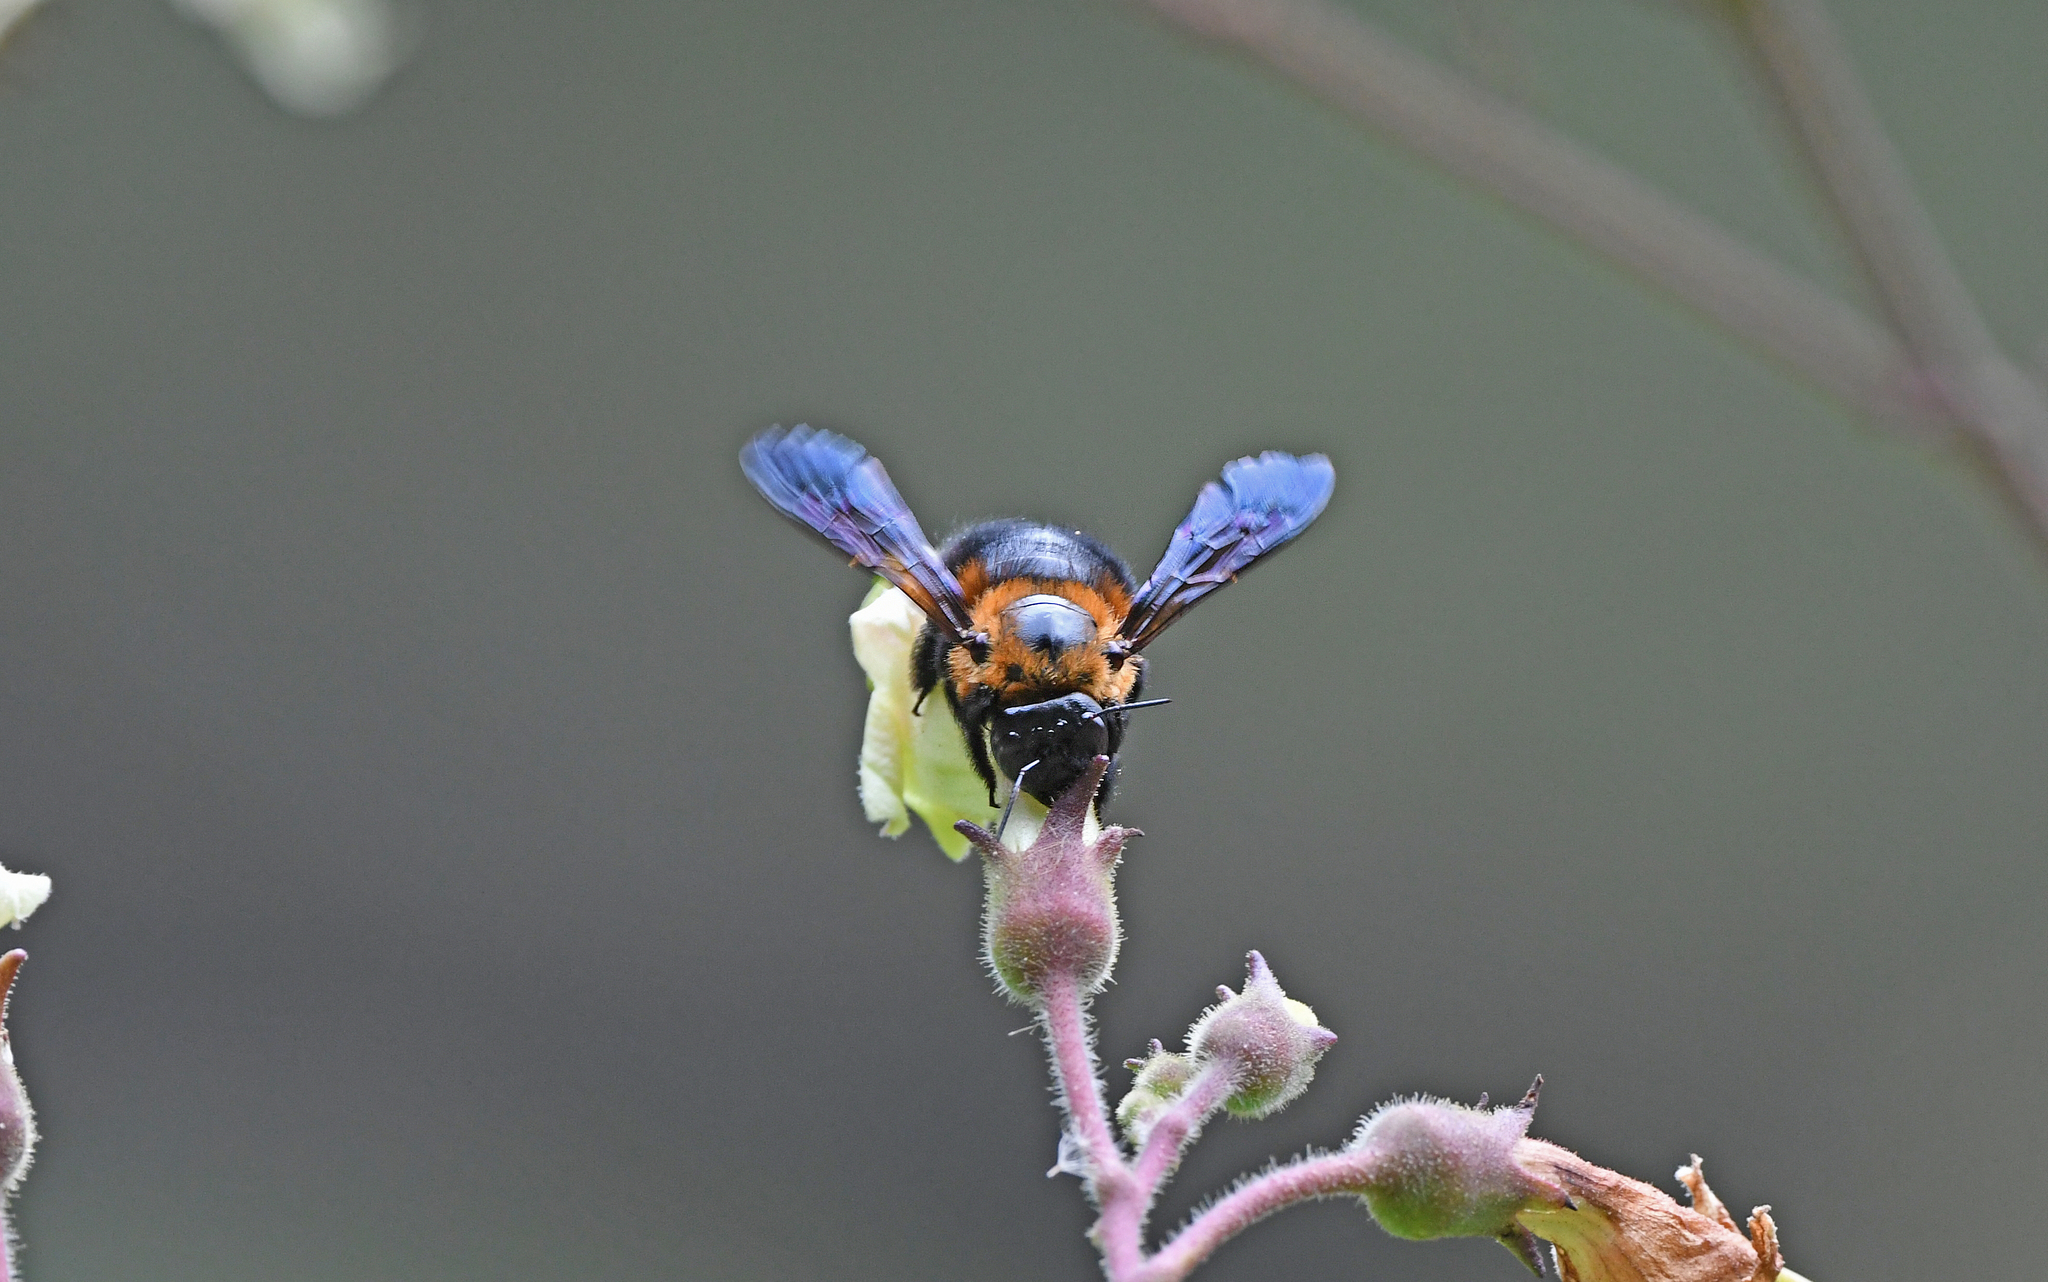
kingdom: Animalia
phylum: Arthropoda
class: Insecta
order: Hymenoptera
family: Apidae
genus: Xylocopa
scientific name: Xylocopa similis
